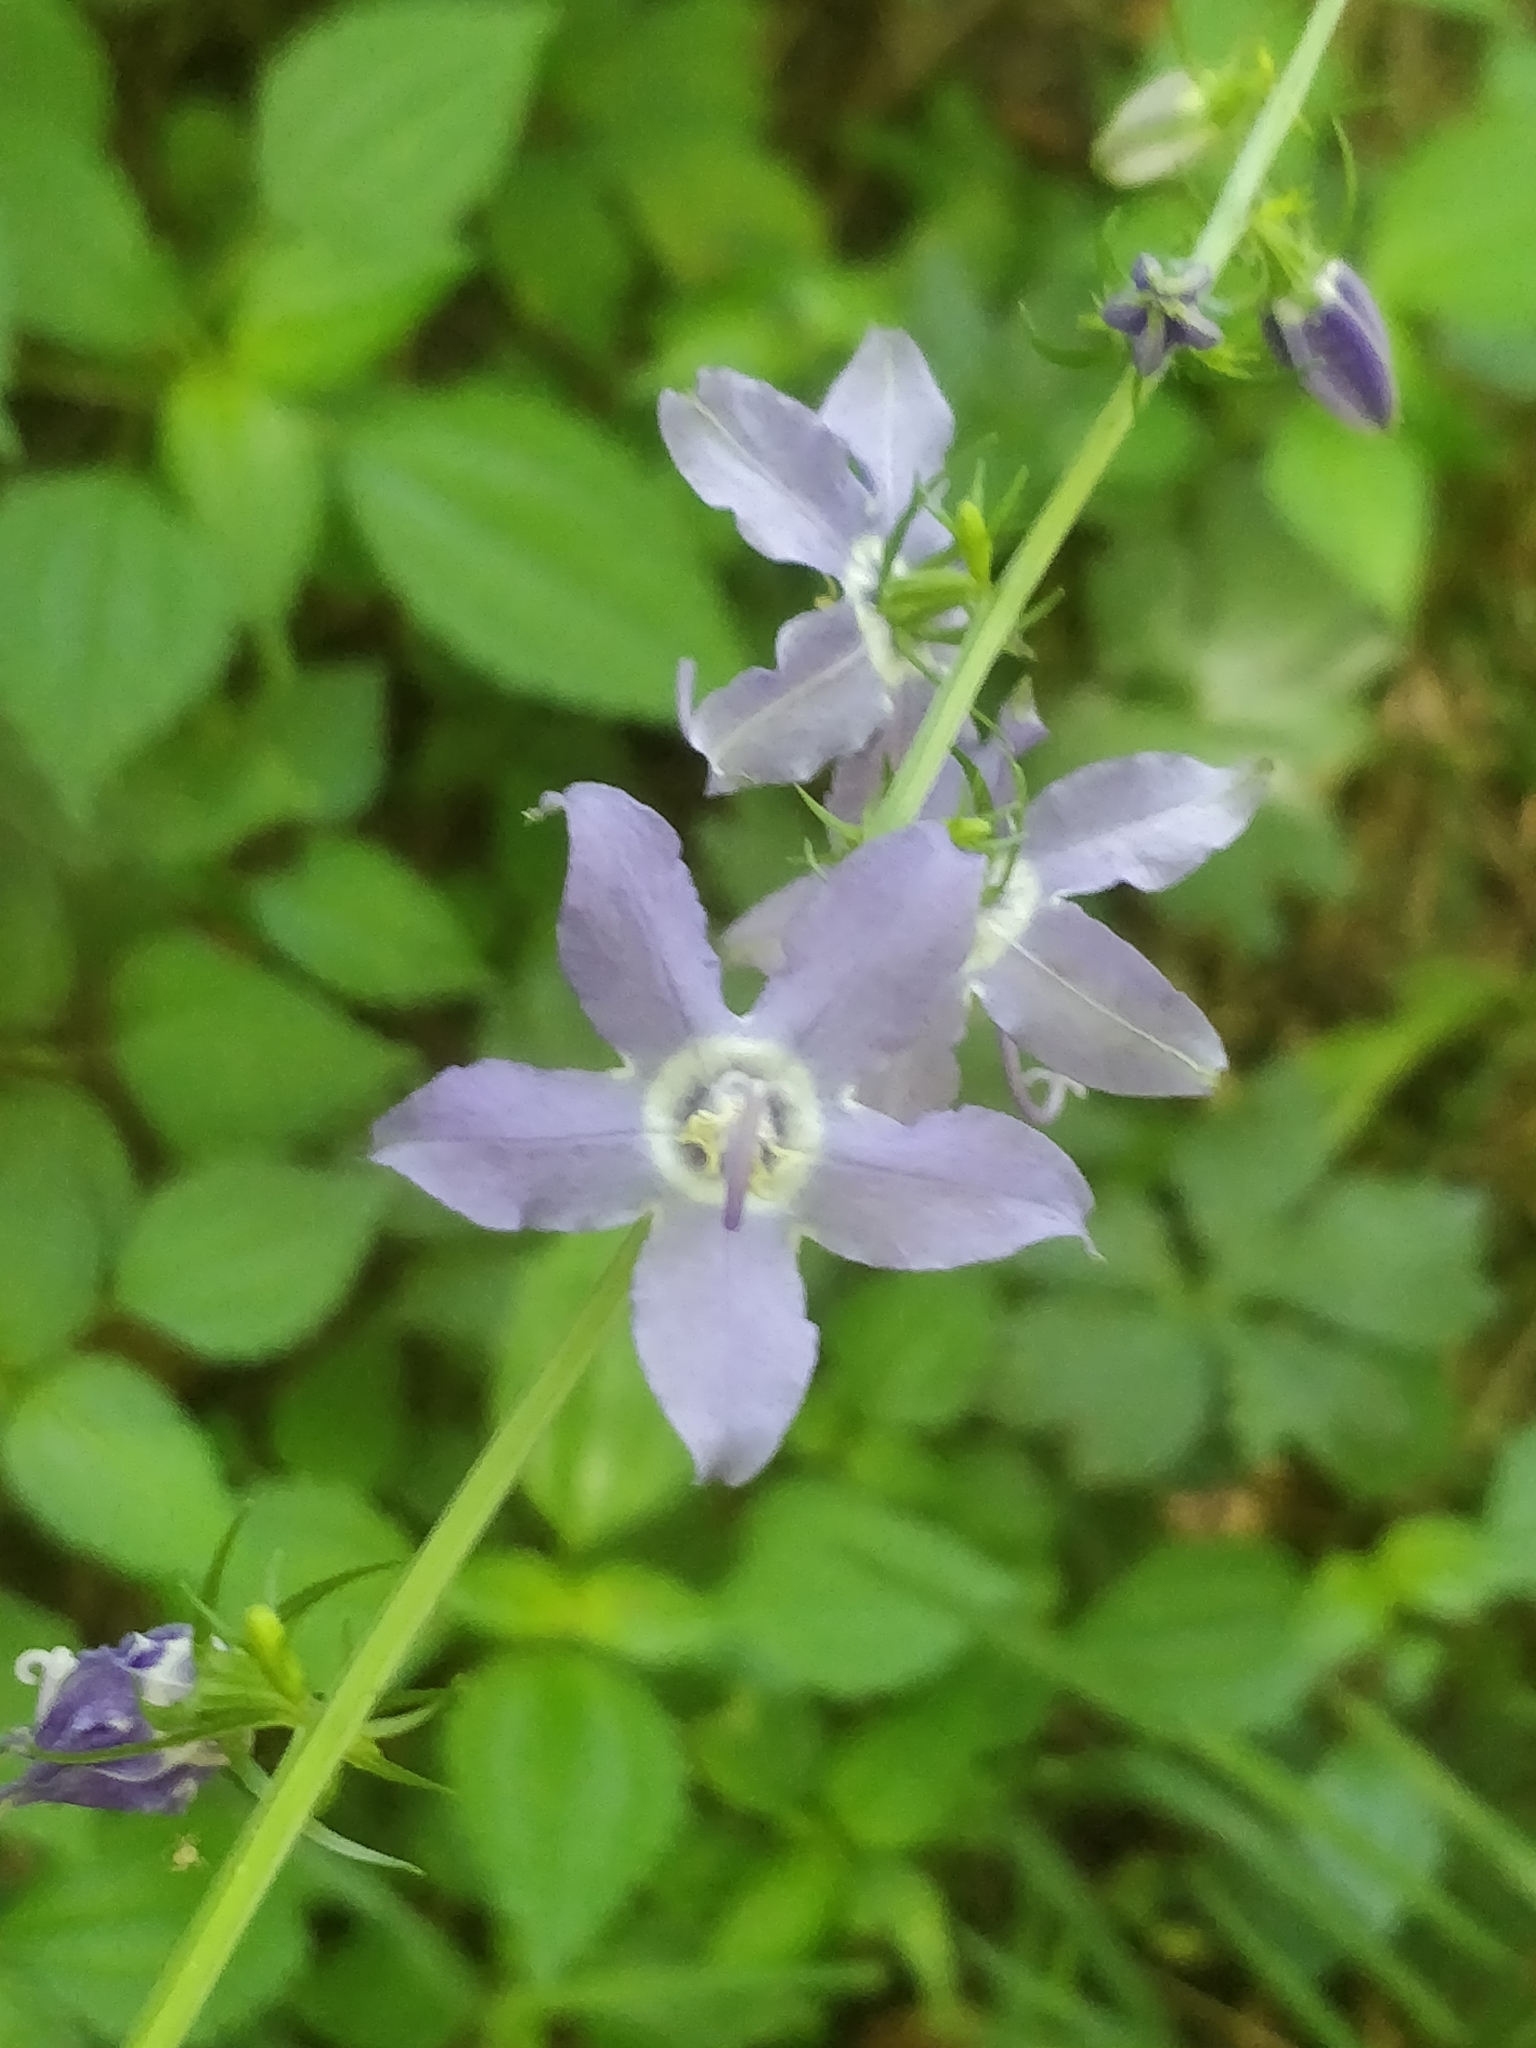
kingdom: Plantae
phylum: Tracheophyta
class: Magnoliopsida
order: Asterales
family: Campanulaceae
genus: Campanulastrum
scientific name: Campanulastrum americanum
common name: American bellflower
